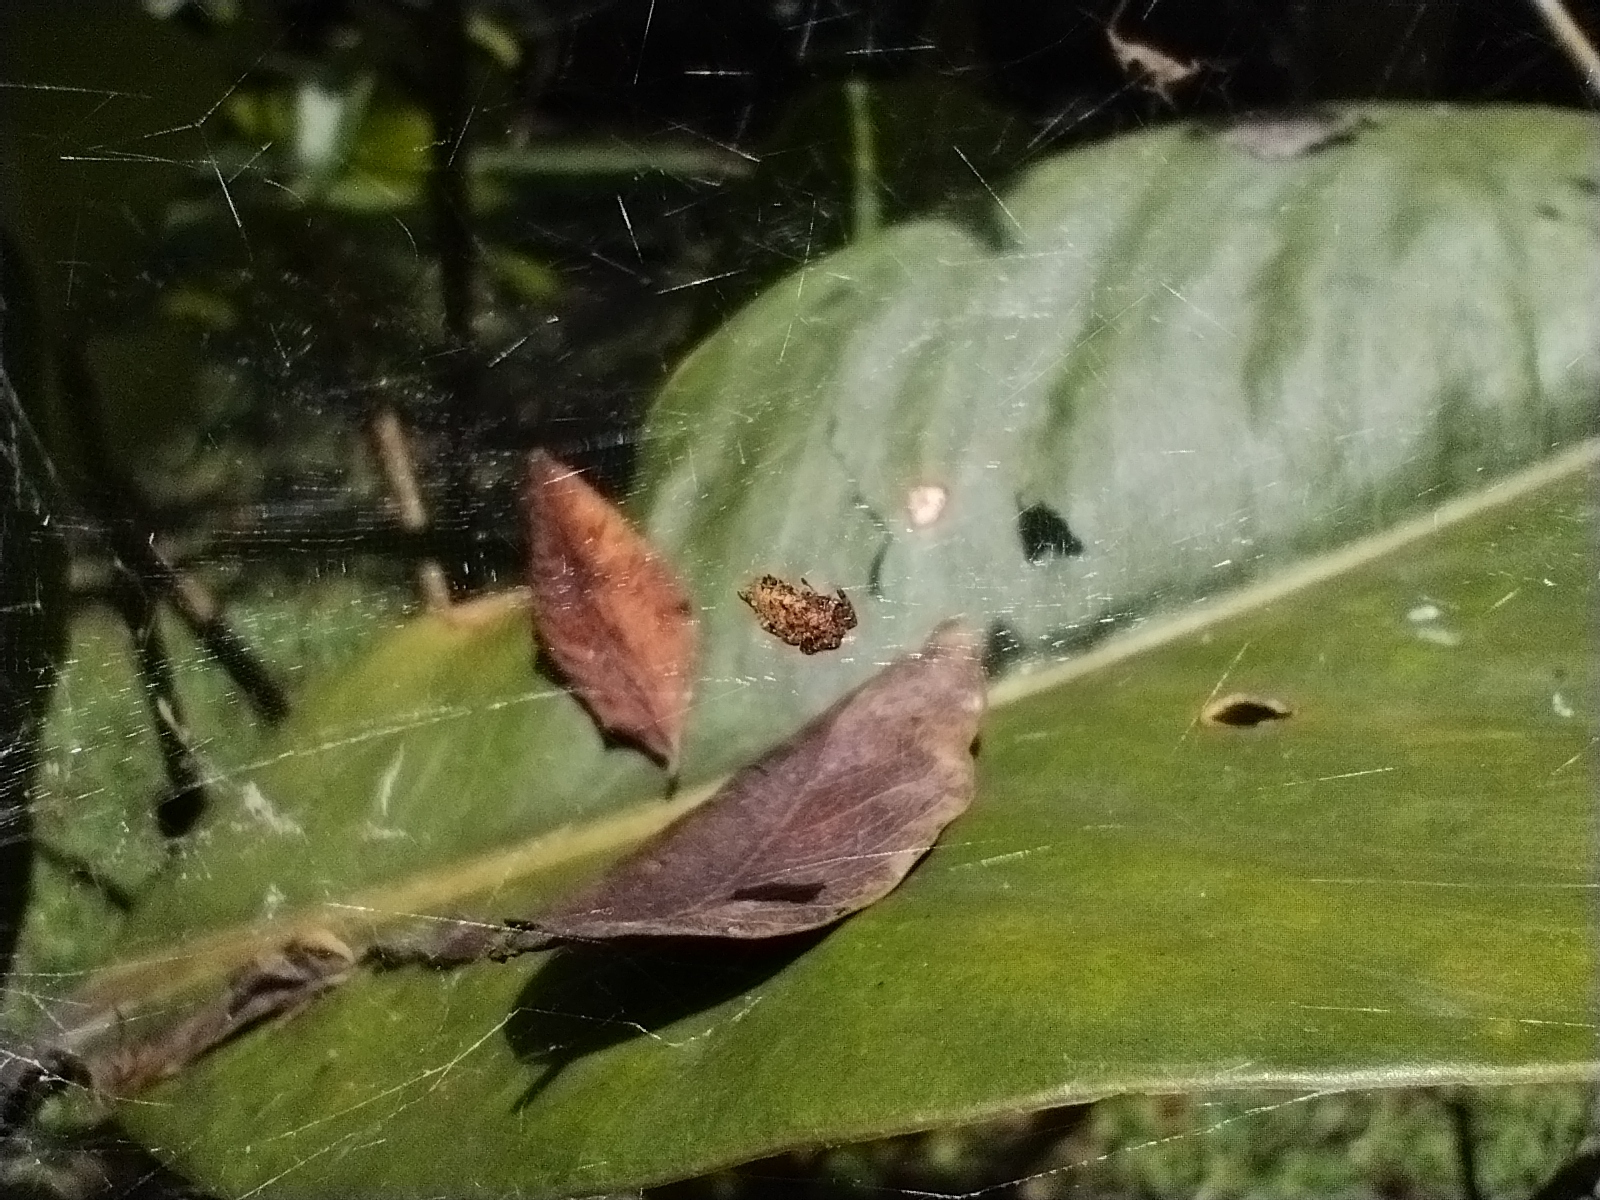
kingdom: Animalia
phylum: Arthropoda
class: Arachnida
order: Araneae
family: Araneidae
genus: Cyrtophora
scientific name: Cyrtophora citricola
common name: Orb weavers
